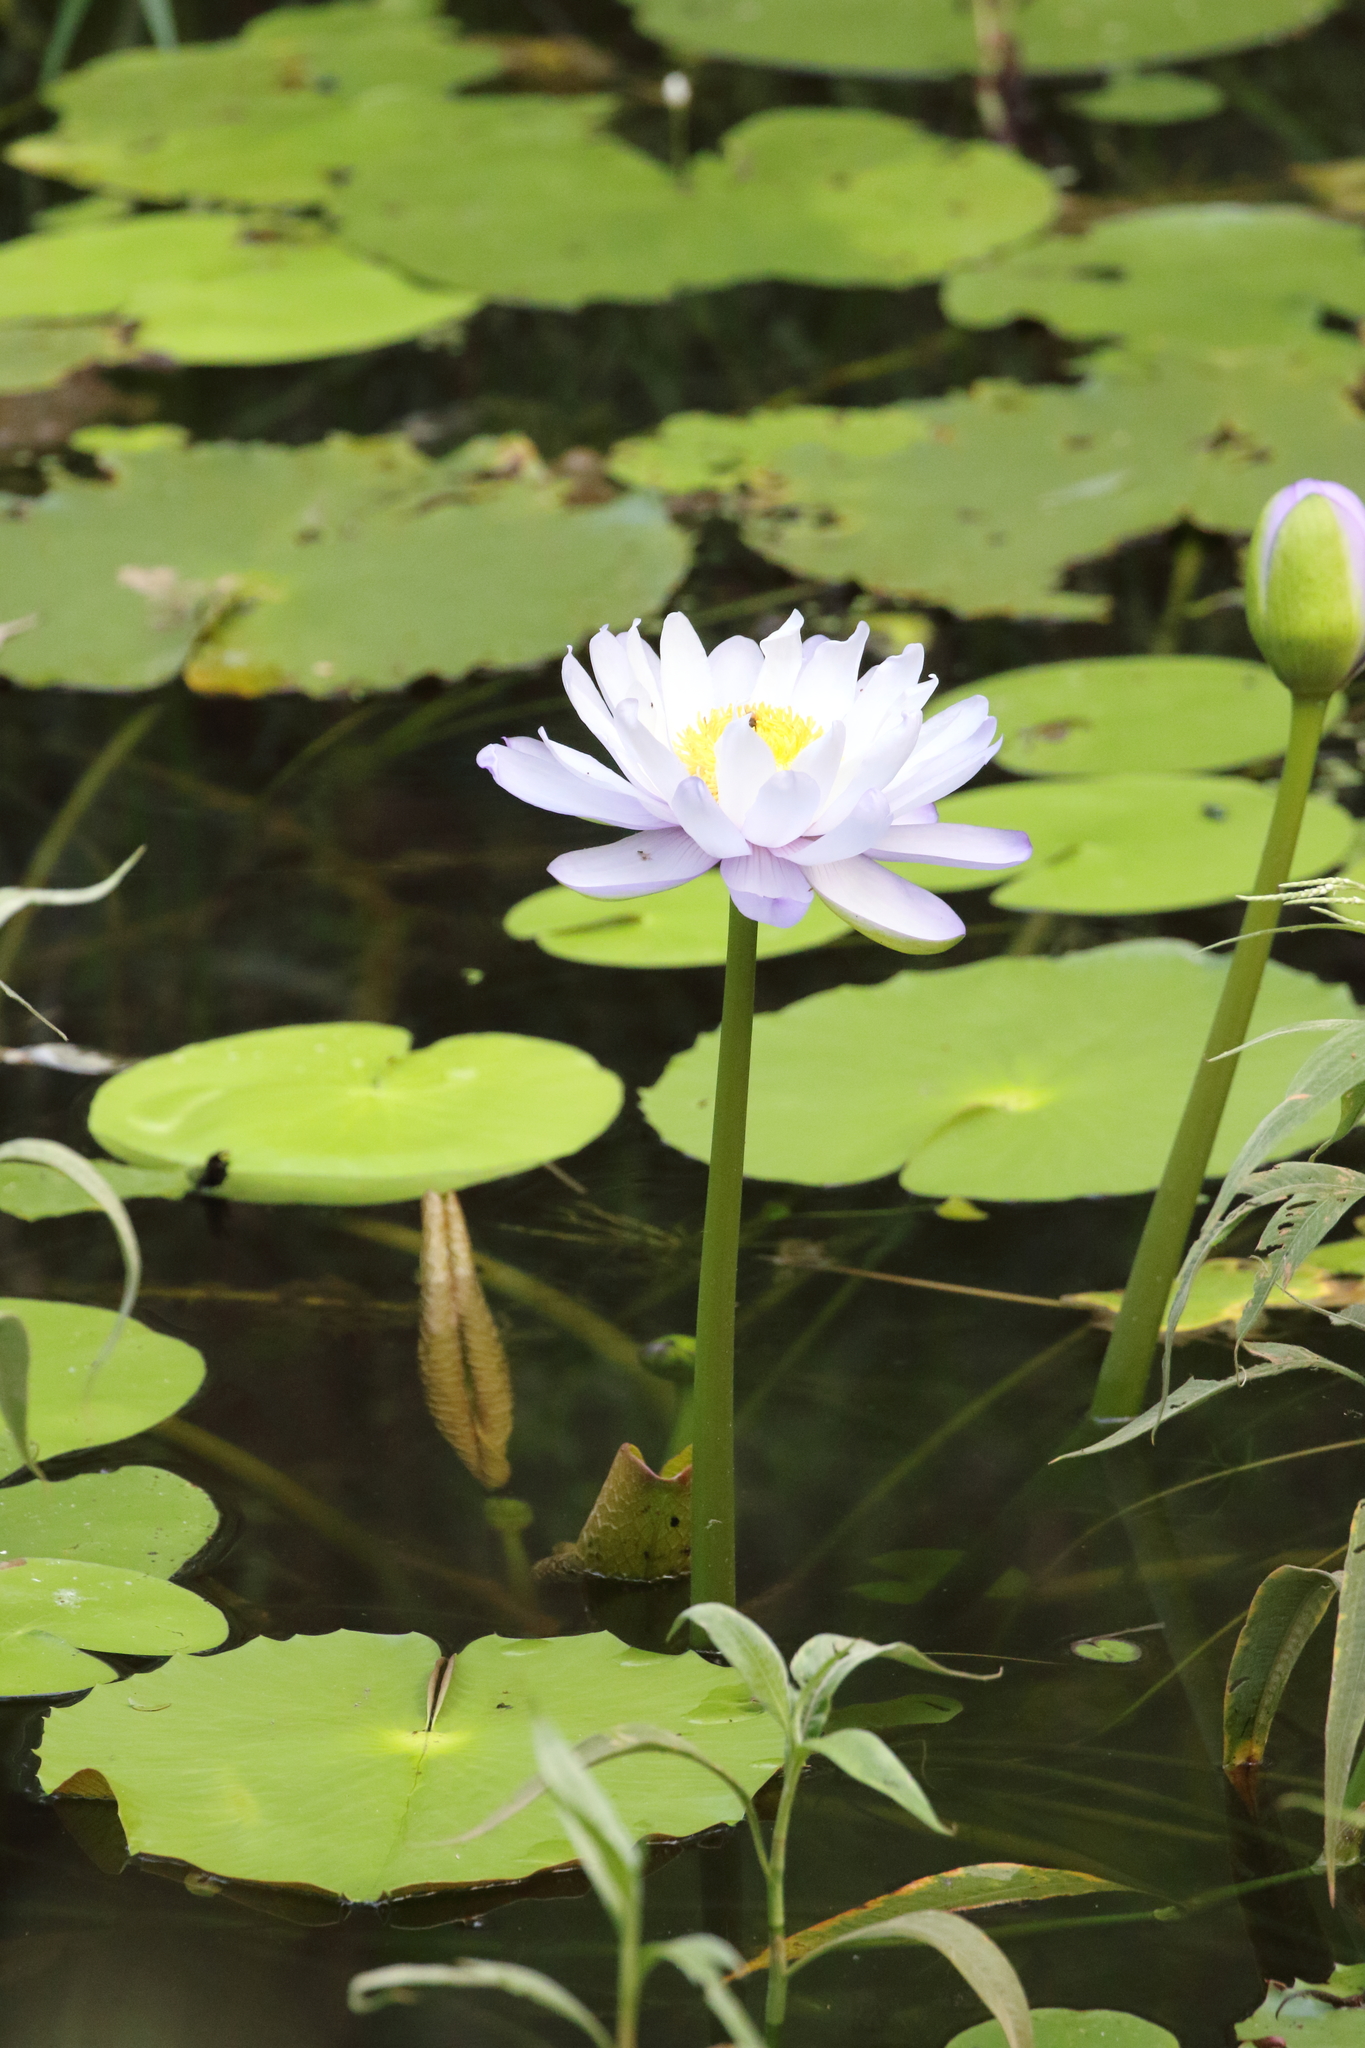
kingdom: Plantae
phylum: Tracheophyta
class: Magnoliopsida
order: Nymphaeales
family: Nymphaeaceae
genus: Nymphaea
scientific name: Nymphaea gigantea
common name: Giant water-lily
